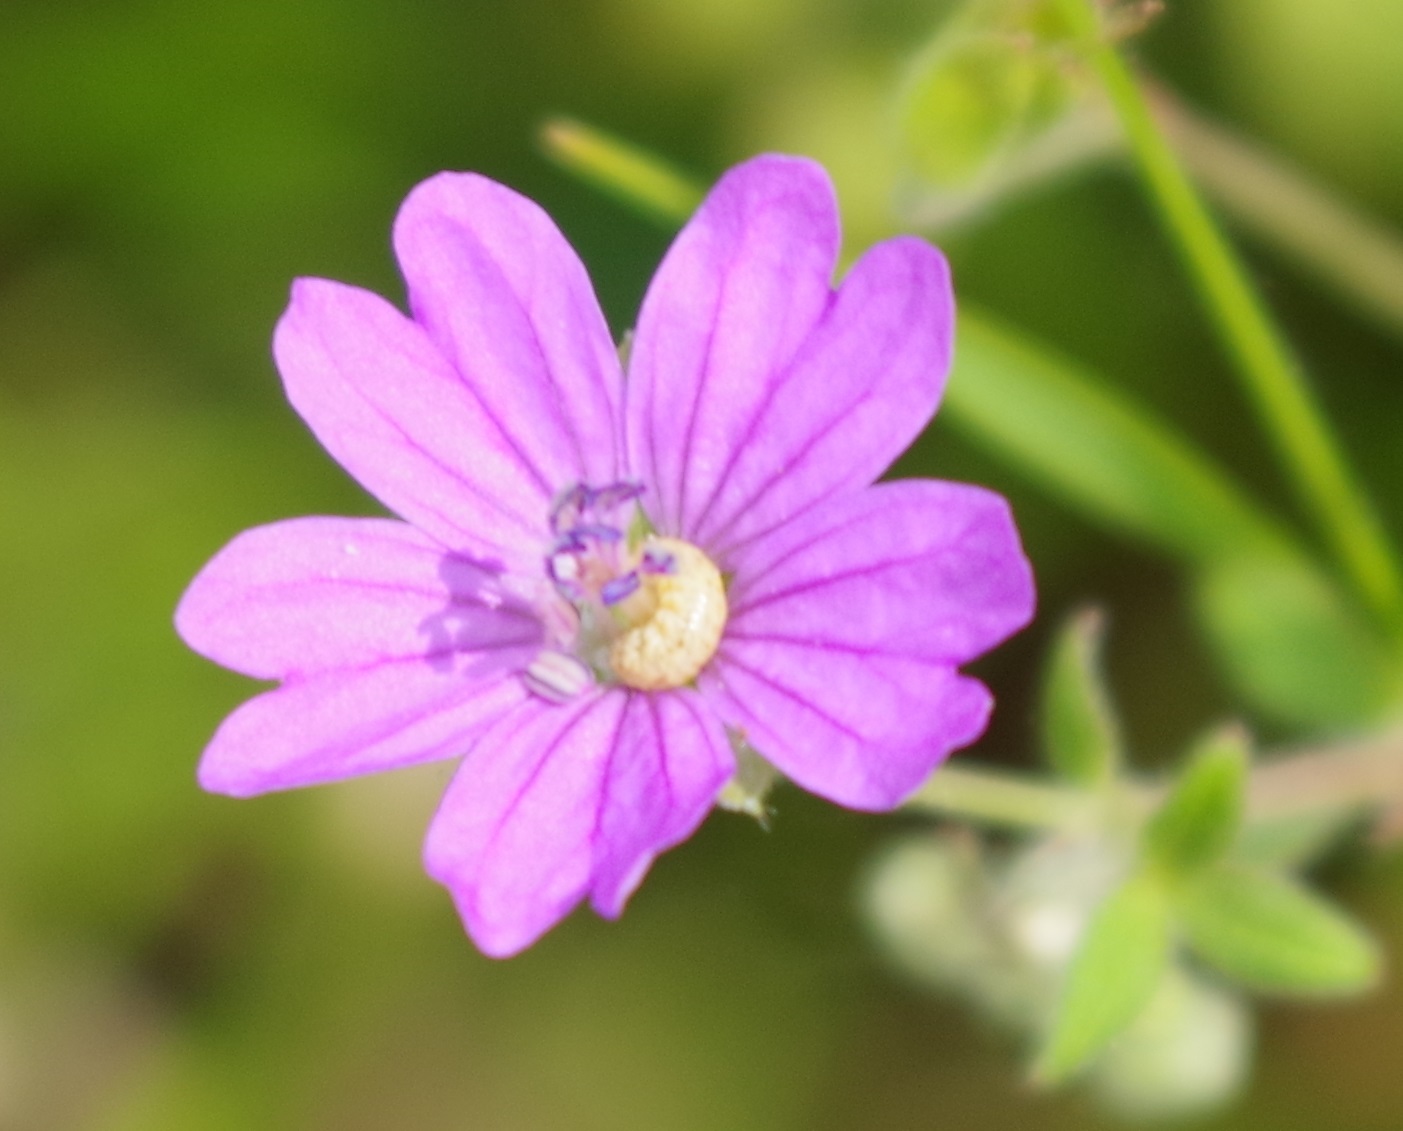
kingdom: Plantae
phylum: Tracheophyta
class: Magnoliopsida
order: Geraniales
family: Geraniaceae
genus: Geranium
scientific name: Geranium pyrenaicum
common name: Hedgerow crane's-bill
